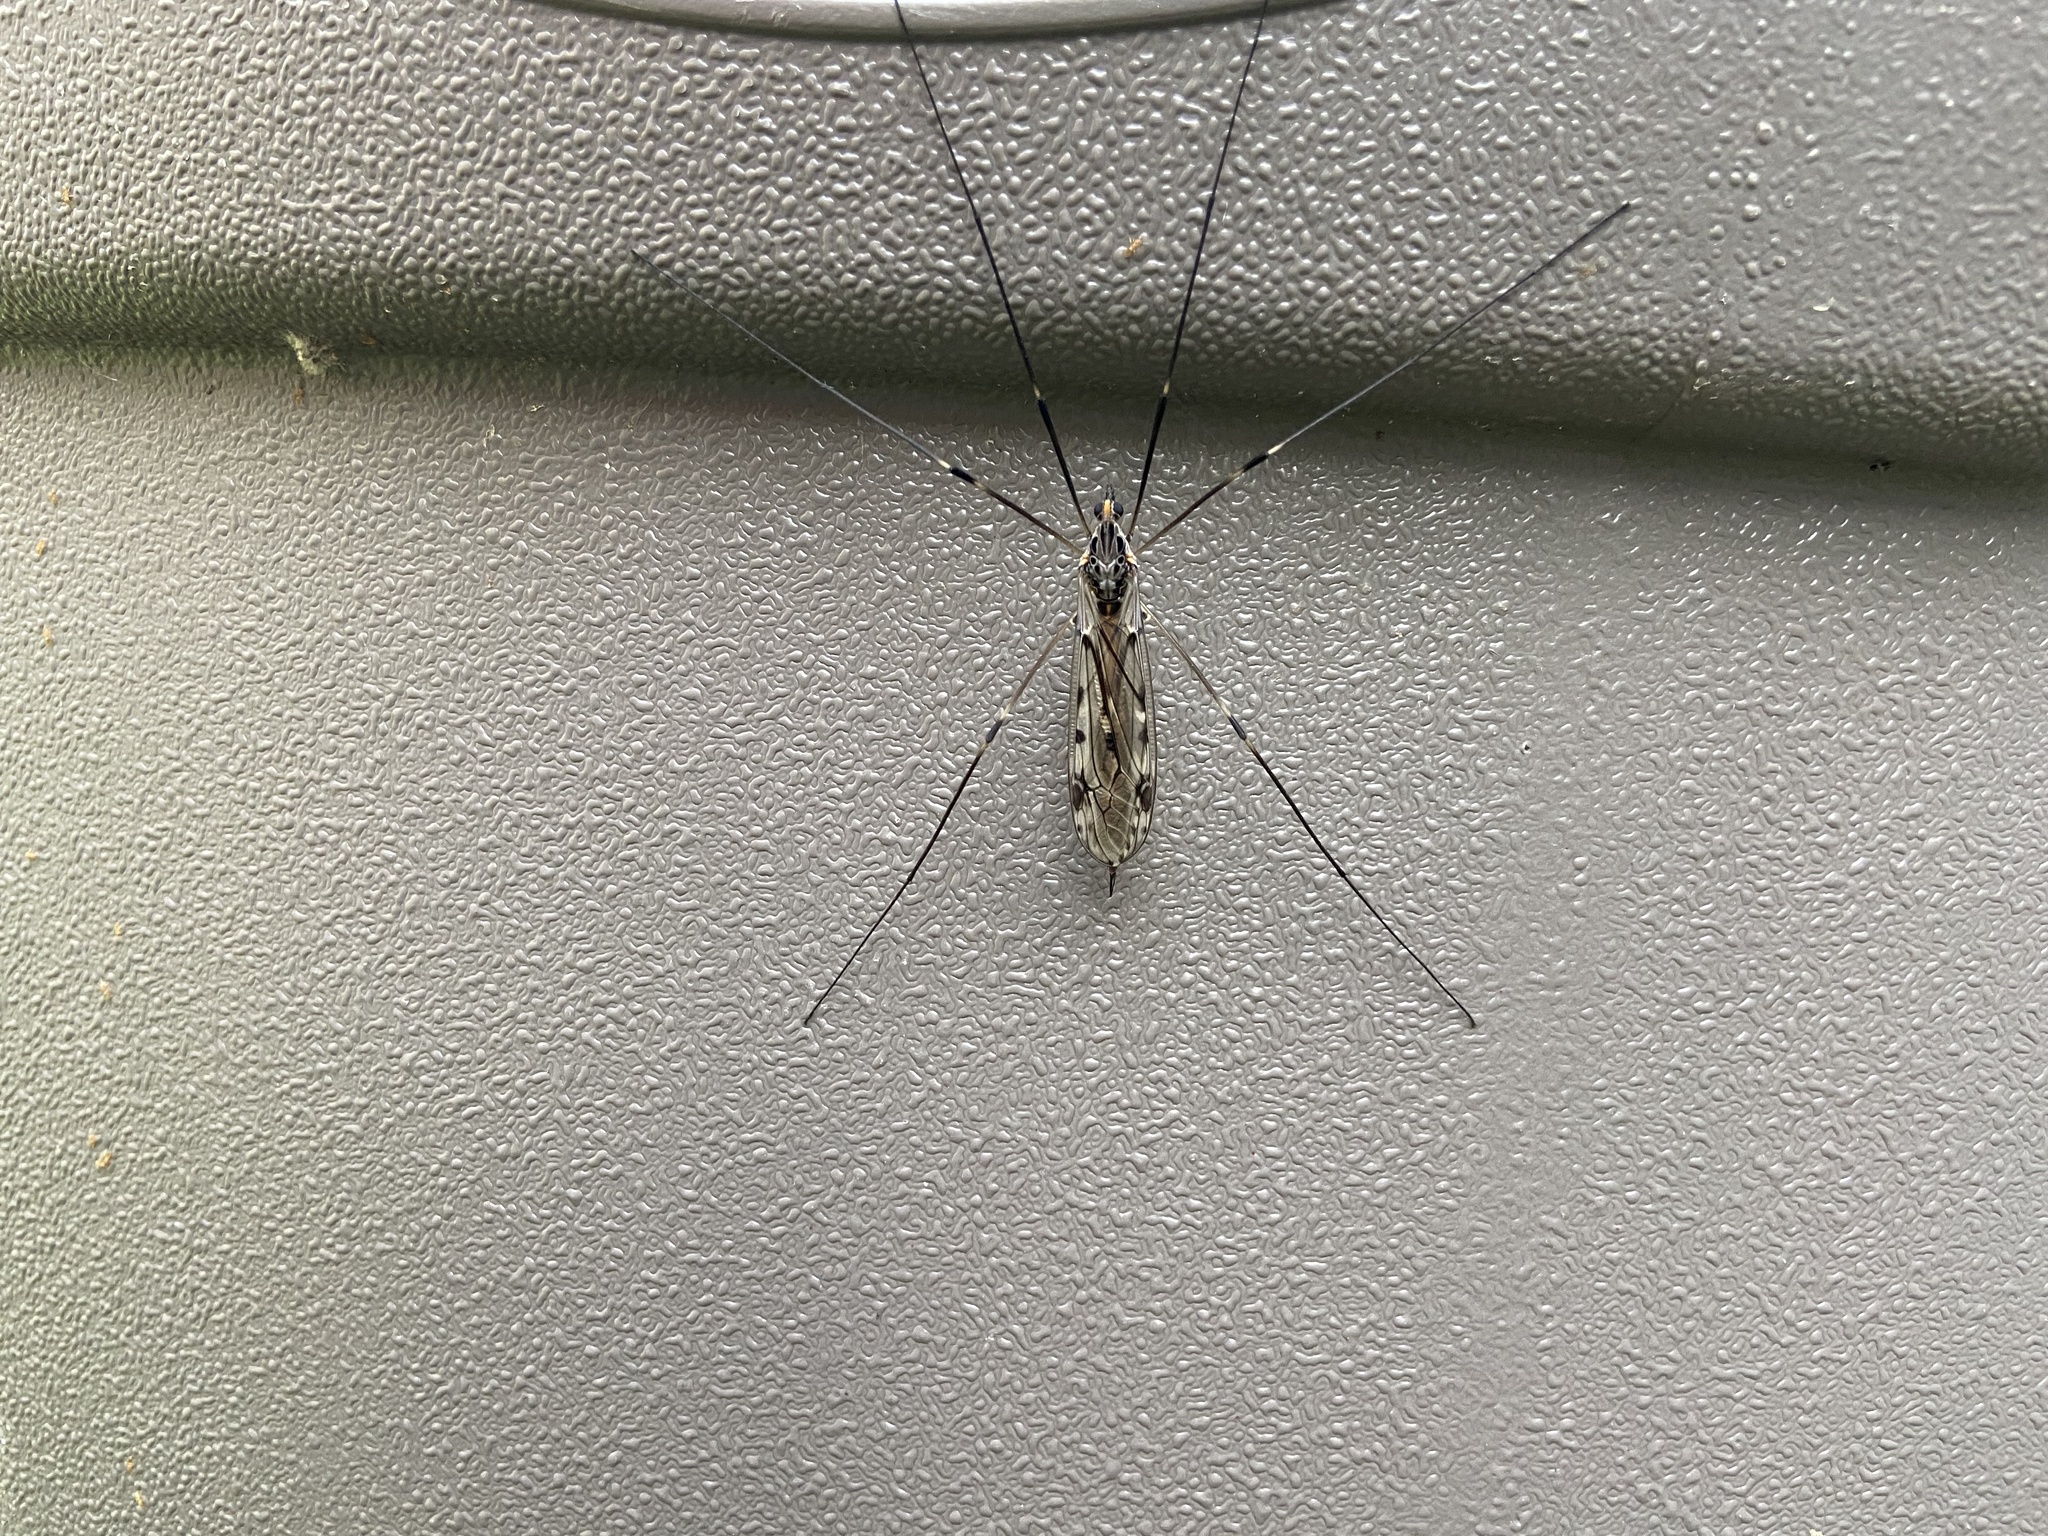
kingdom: Animalia
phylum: Arthropoda
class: Insecta
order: Diptera
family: Tipulidae
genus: Tipula
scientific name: Tipula abdominalis
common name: Giant crane fly
